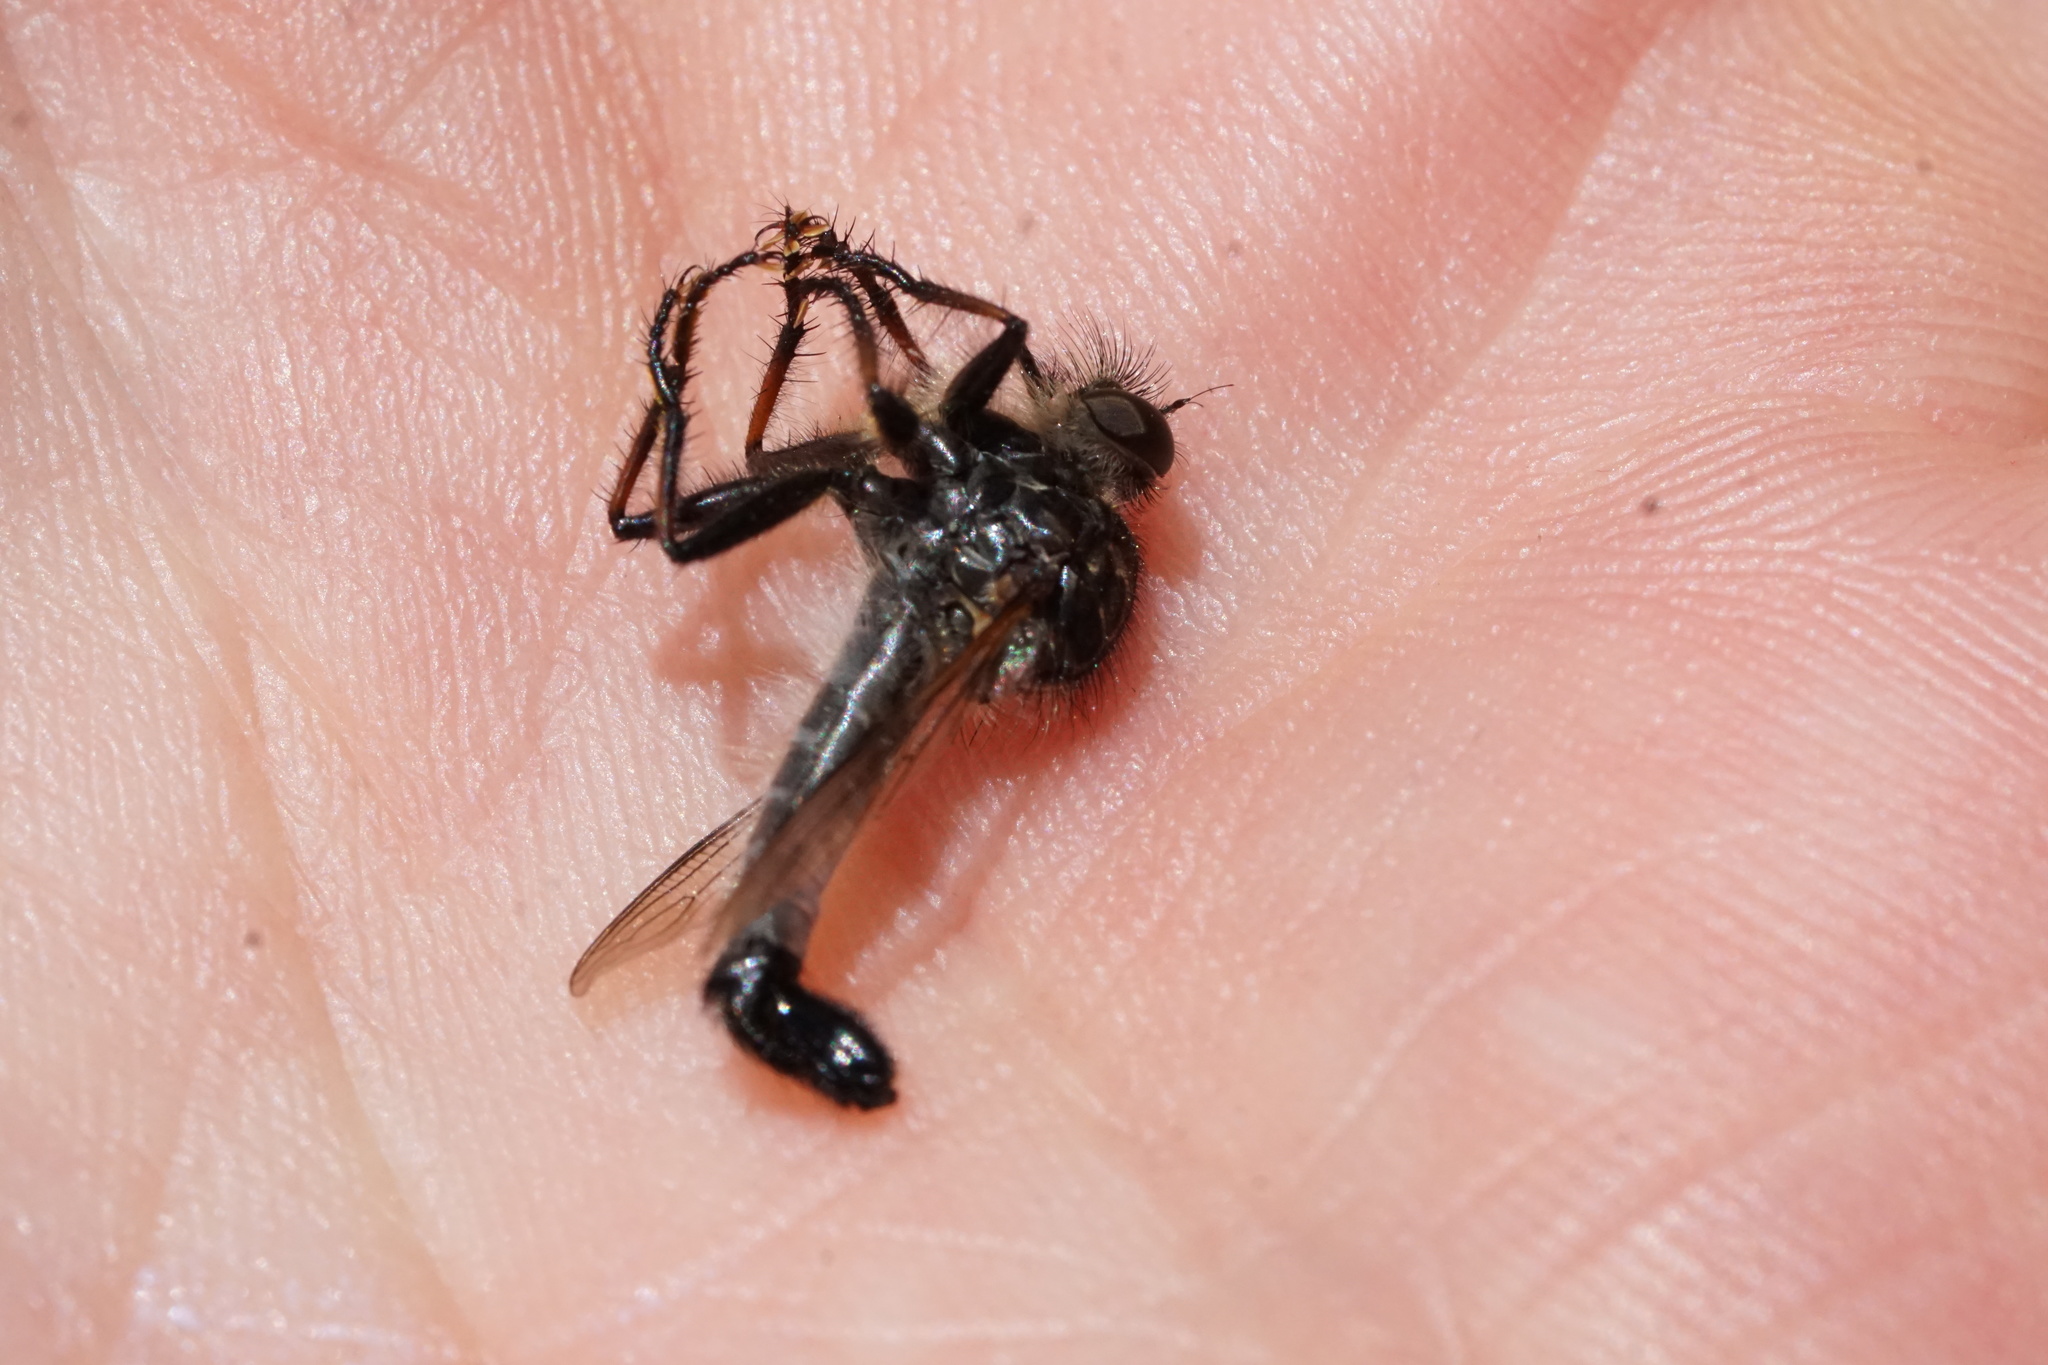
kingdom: Animalia
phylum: Arthropoda
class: Insecta
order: Diptera
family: Asilidae
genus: Efferia
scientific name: Efferia aestuans
